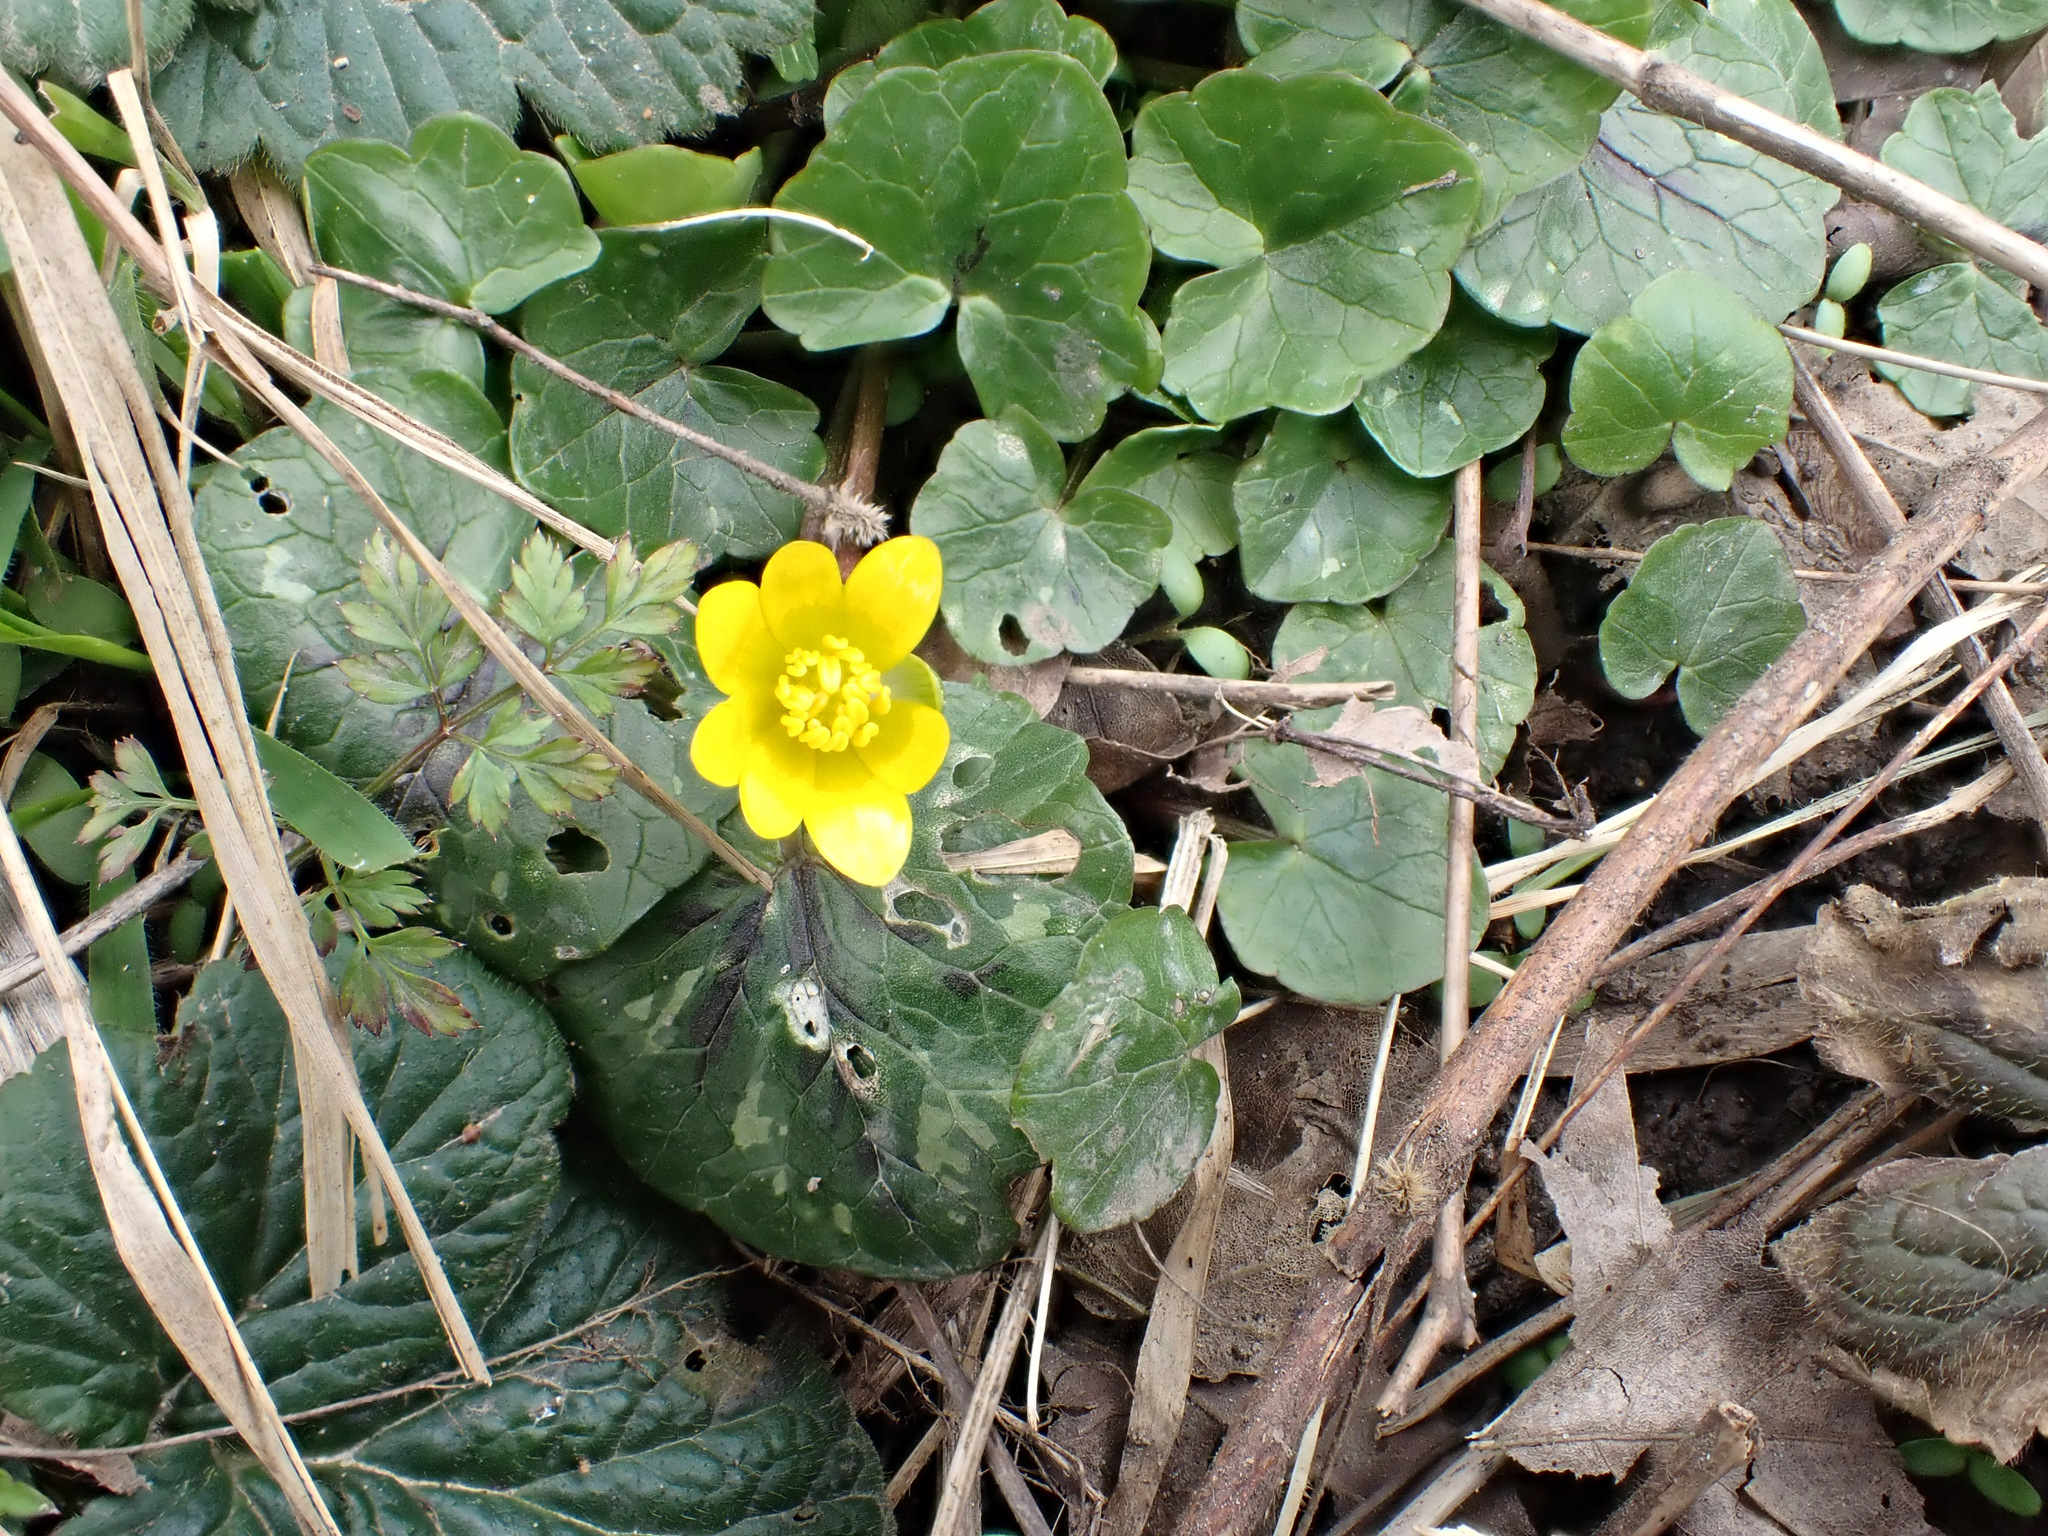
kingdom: Plantae
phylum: Tracheophyta
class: Magnoliopsida
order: Ranunculales
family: Ranunculaceae
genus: Ficaria
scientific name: Ficaria verna
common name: Lesser celandine
